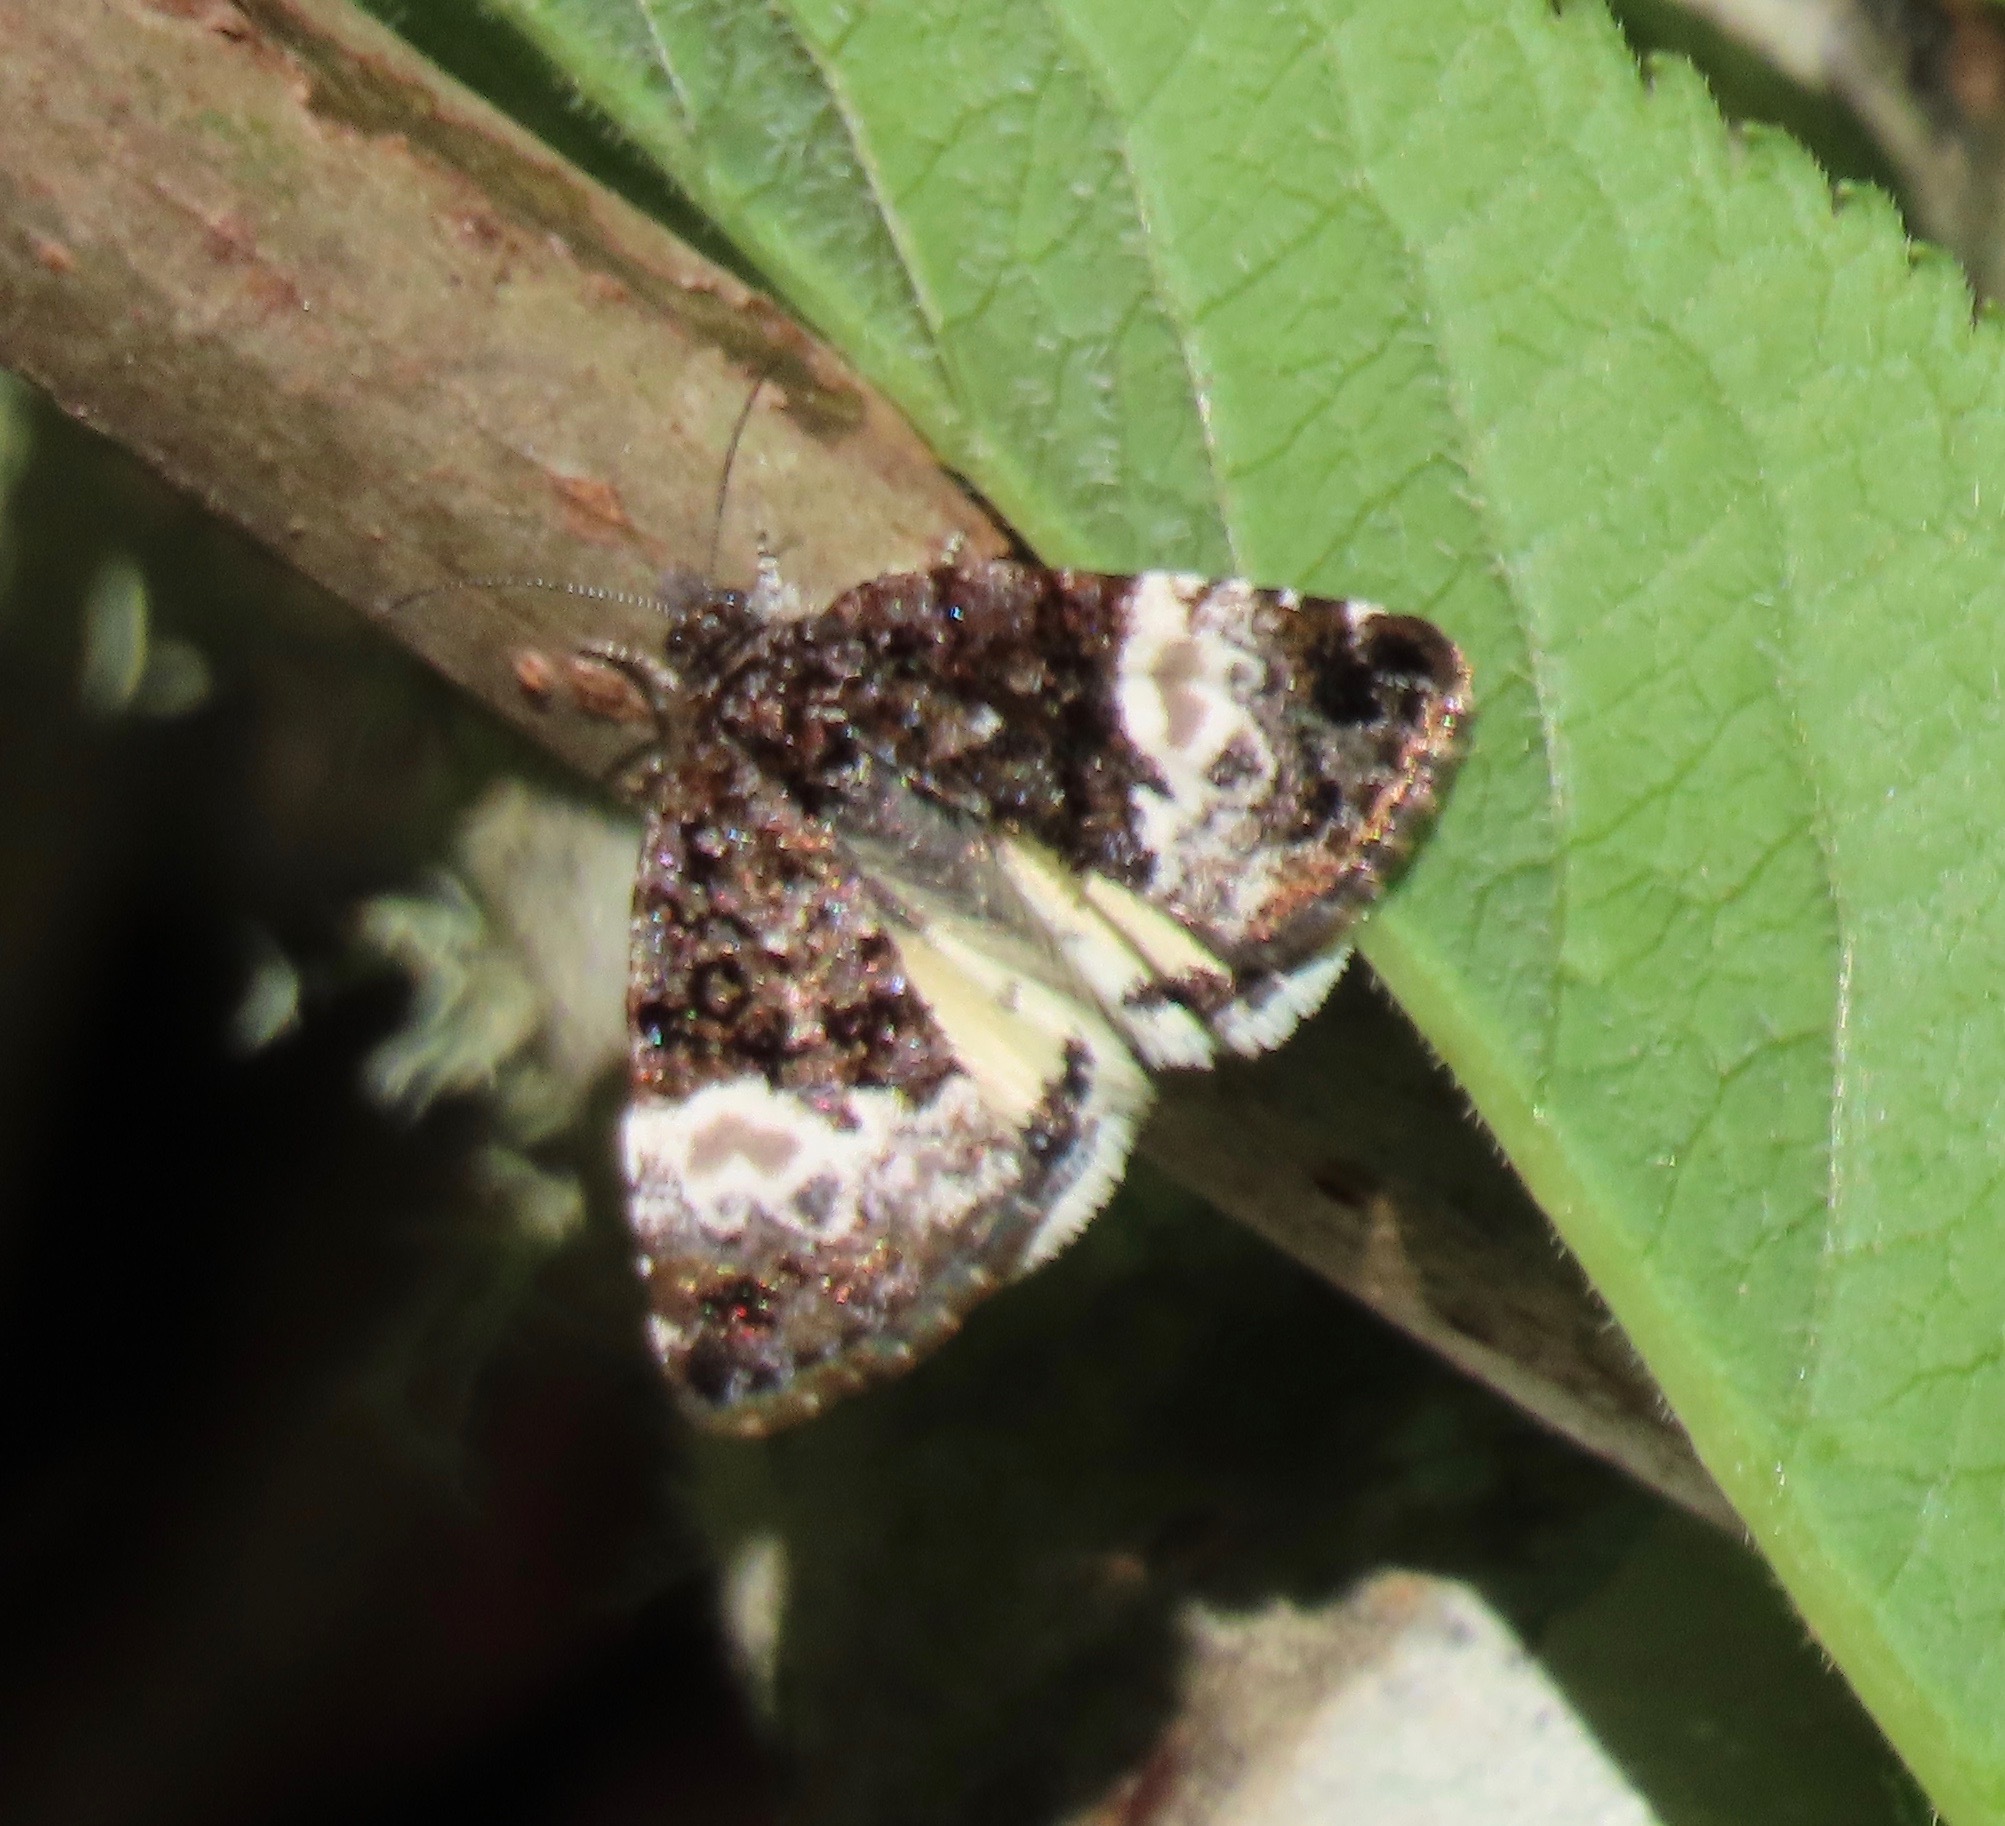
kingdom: Animalia
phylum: Arthropoda
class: Insecta
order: Lepidoptera
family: Noctuidae
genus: Annaphila
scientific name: Annaphila diva
